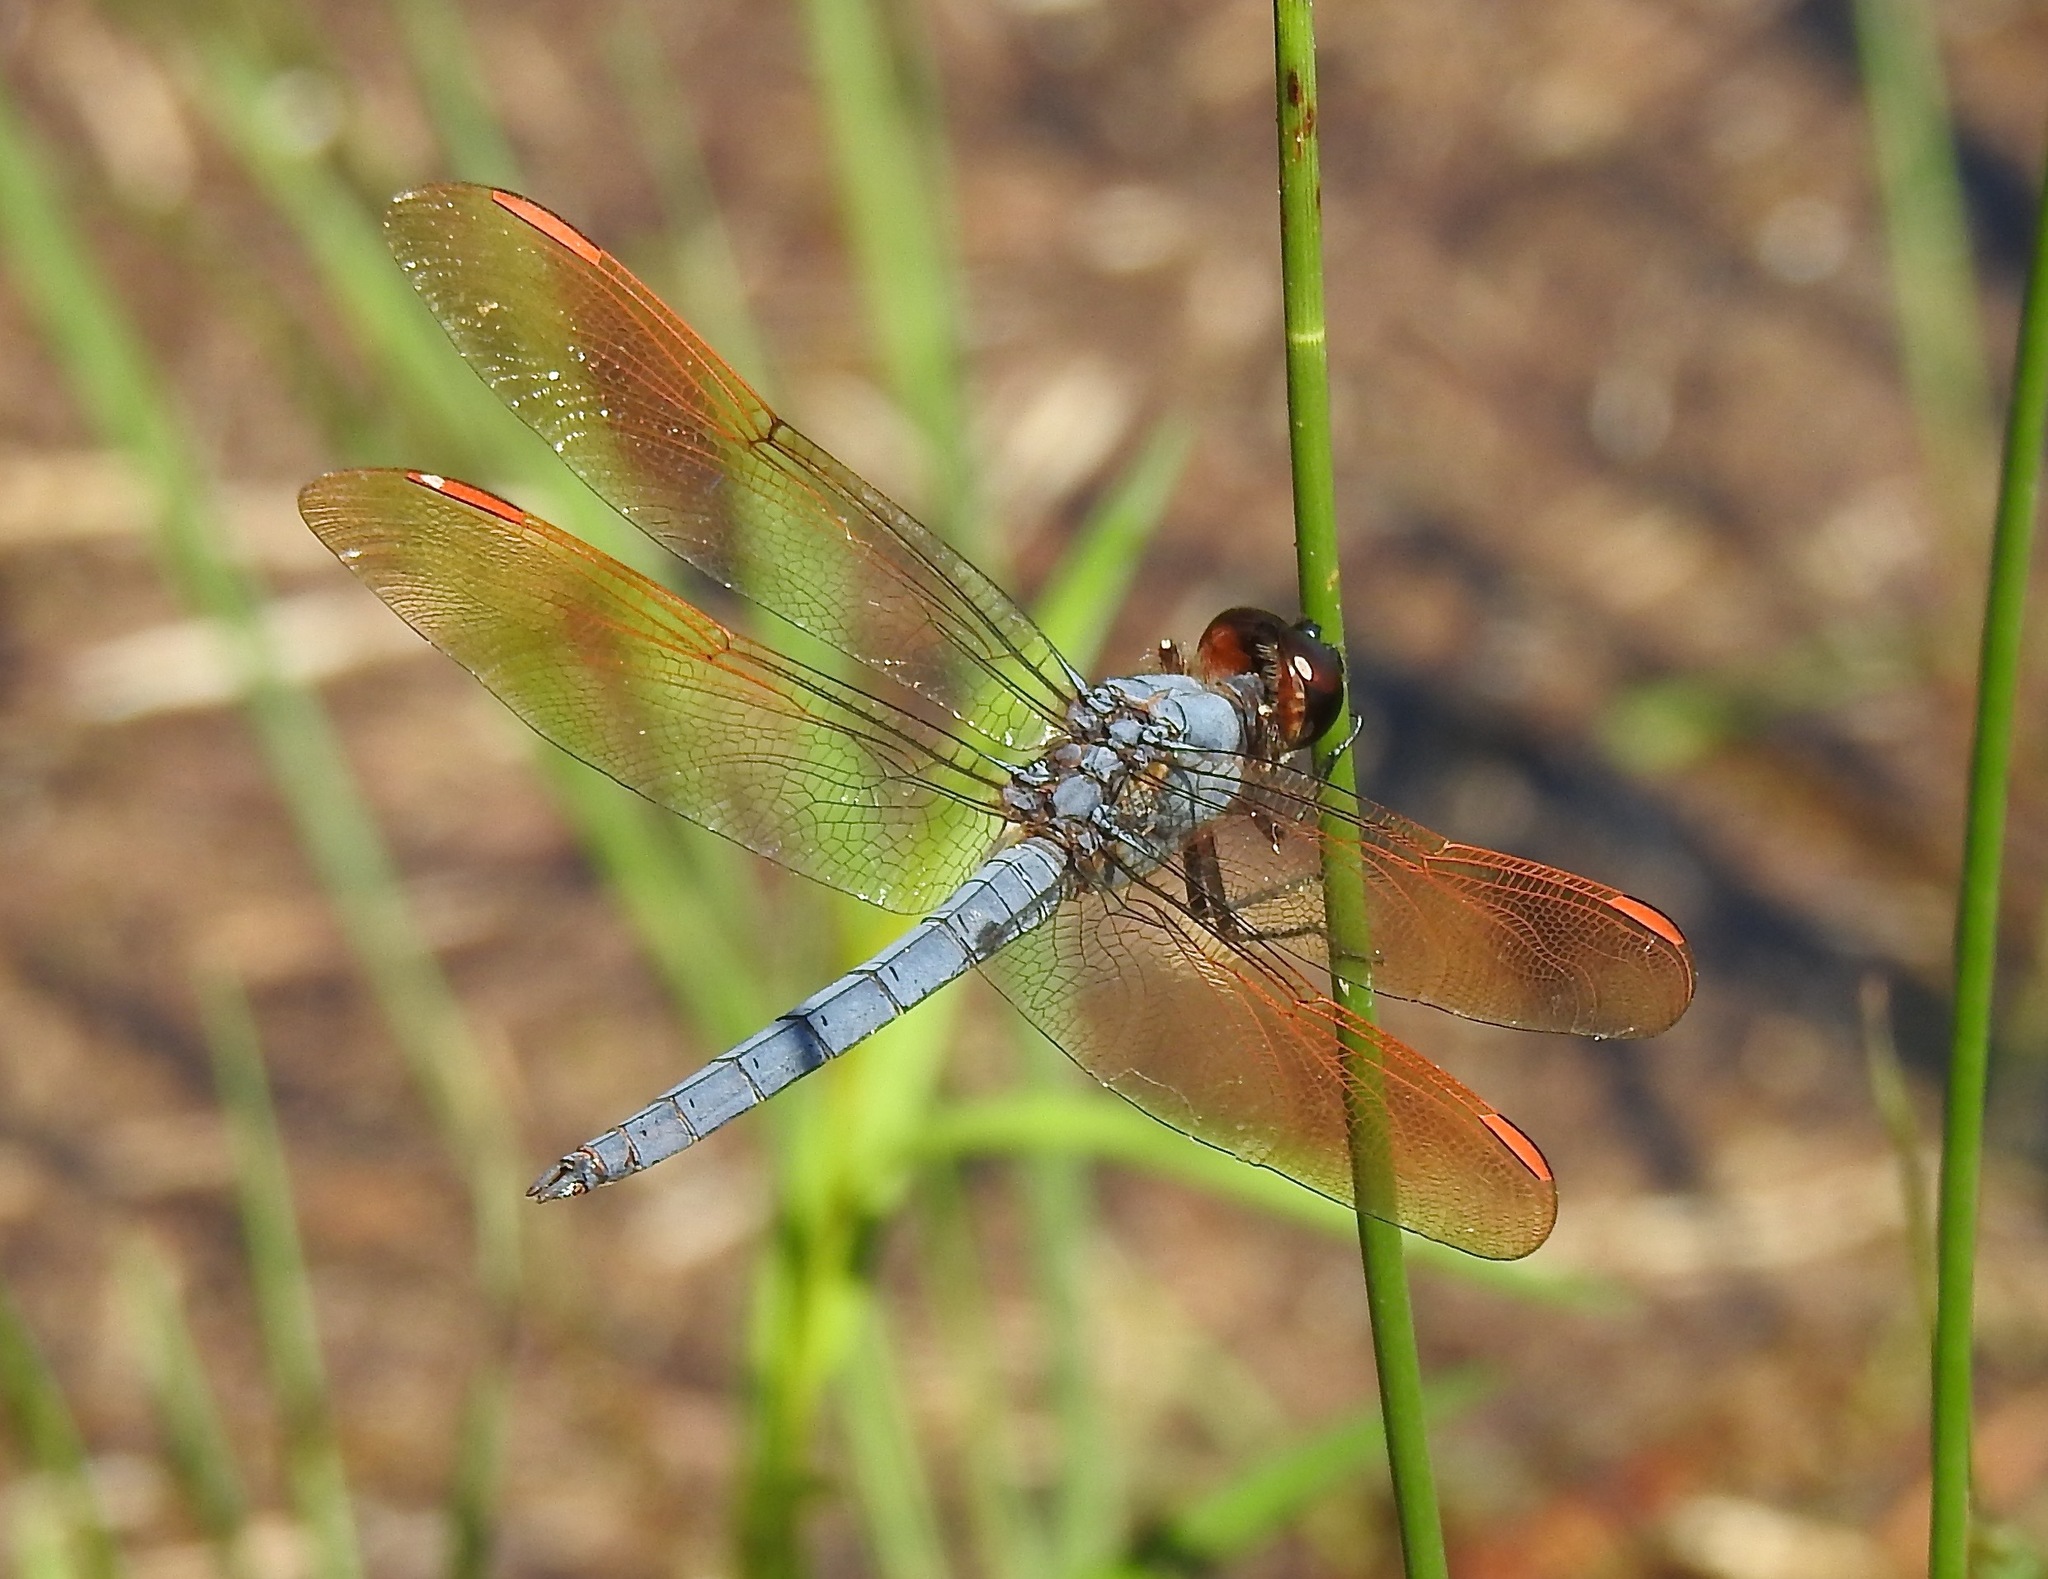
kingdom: Animalia
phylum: Arthropoda
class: Insecta
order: Odonata
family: Libellulidae
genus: Libellula
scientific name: Libellula jesseana
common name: Purple skimmer
